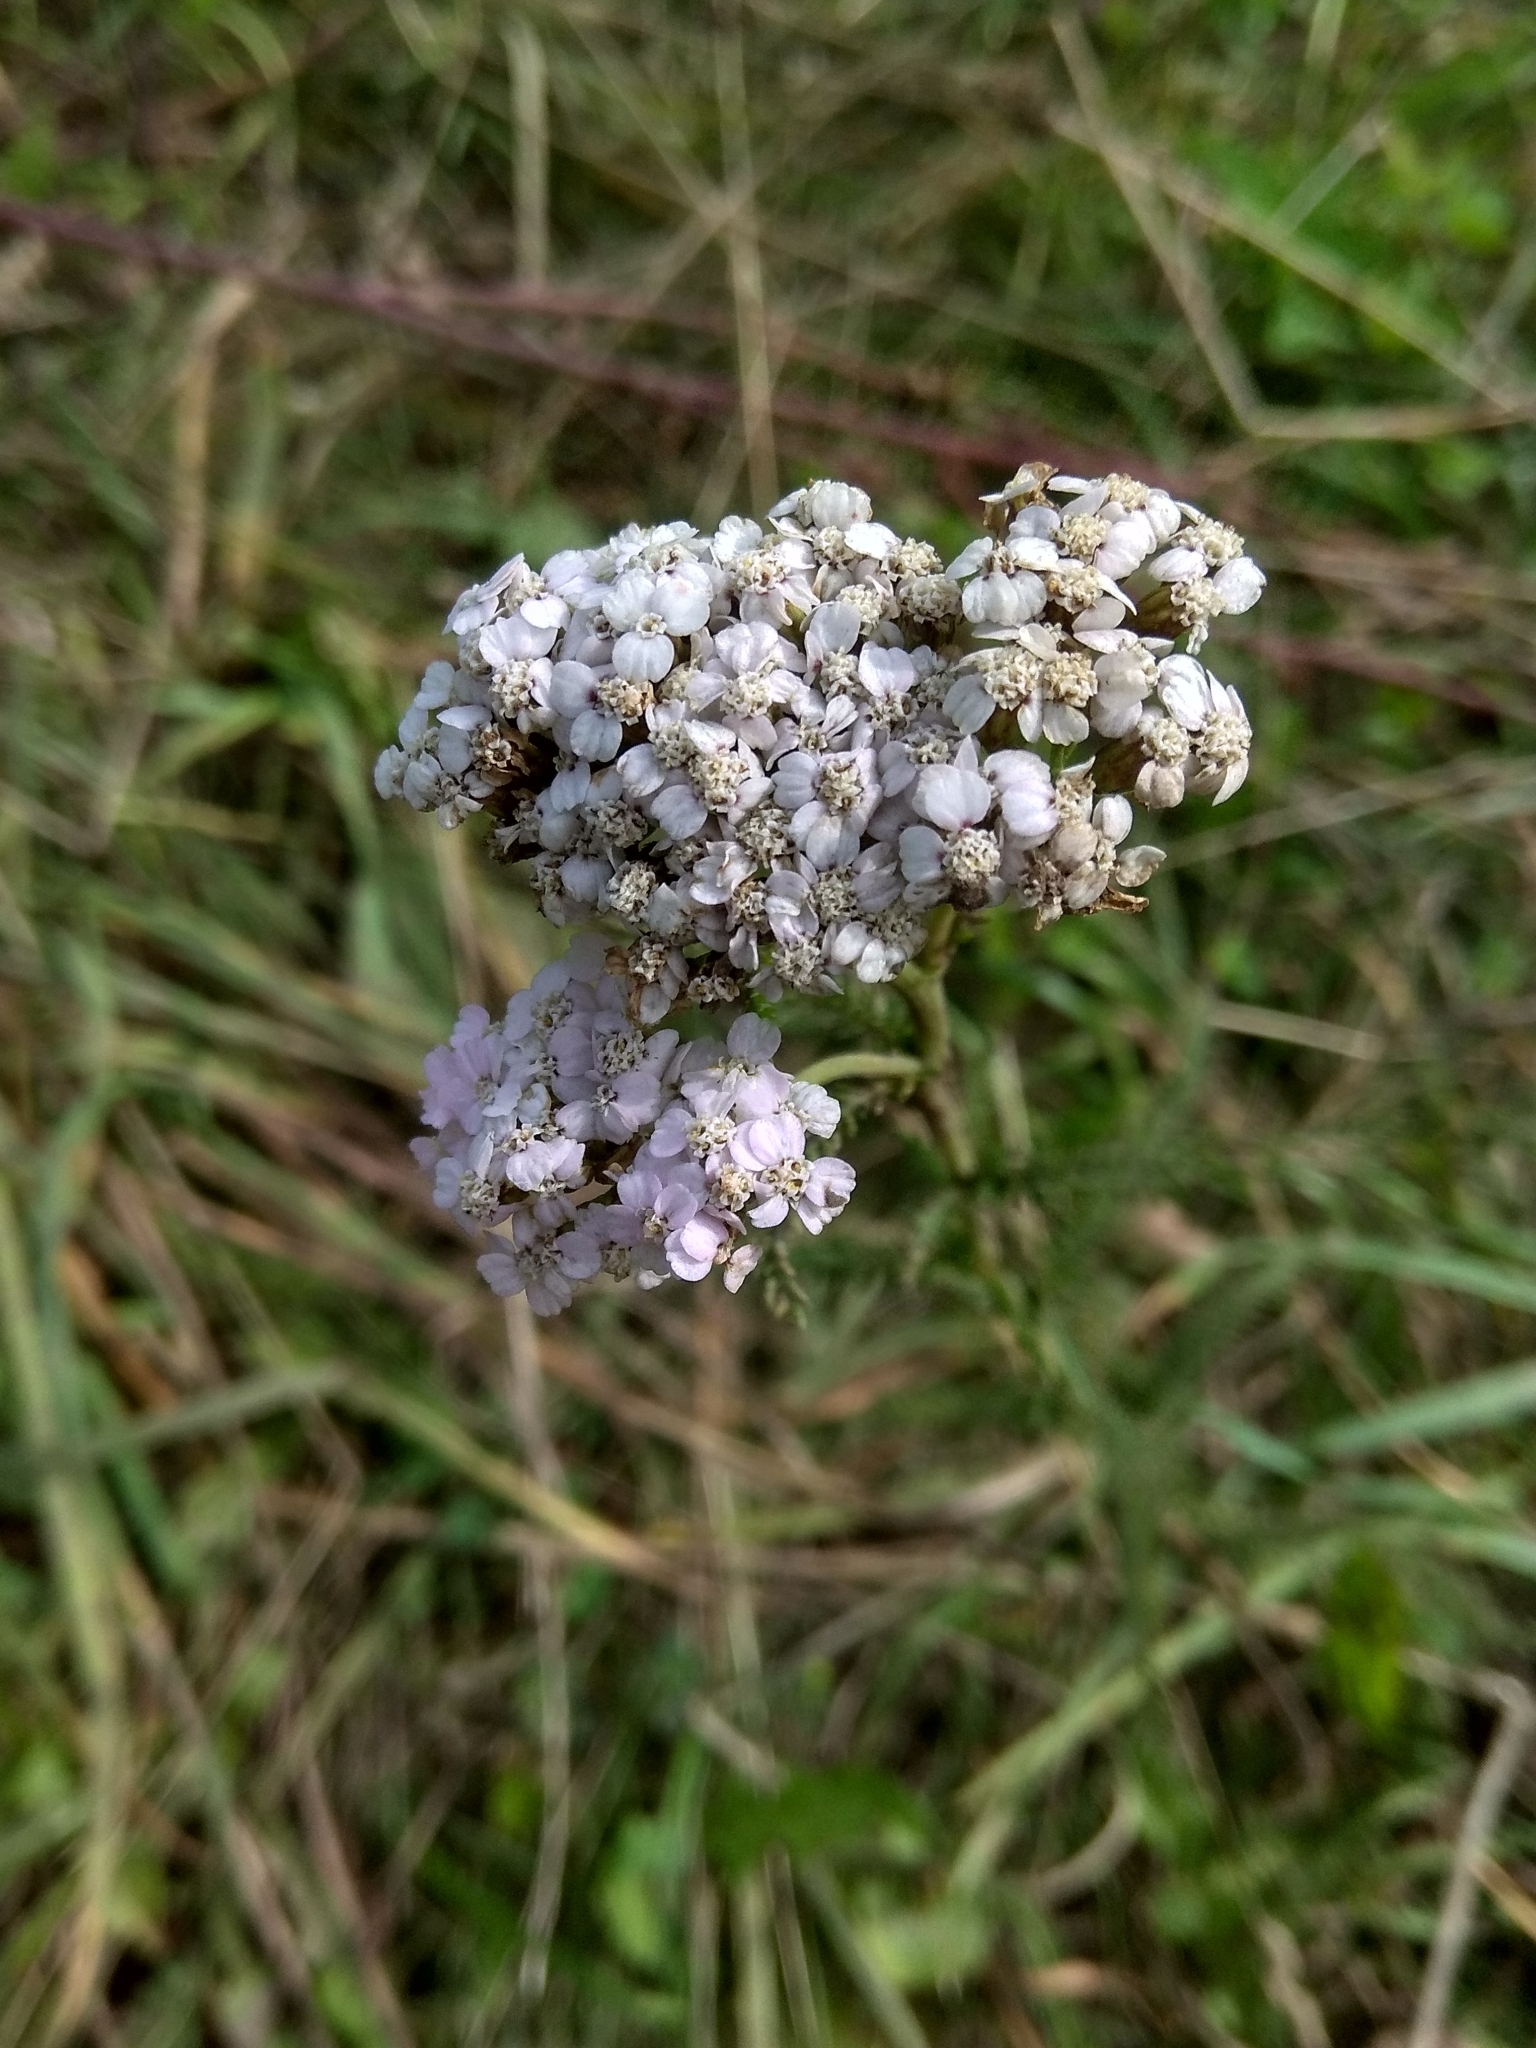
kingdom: Plantae
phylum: Tracheophyta
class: Magnoliopsida
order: Asterales
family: Asteraceae
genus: Achillea
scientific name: Achillea millefolium
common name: Yarrow
